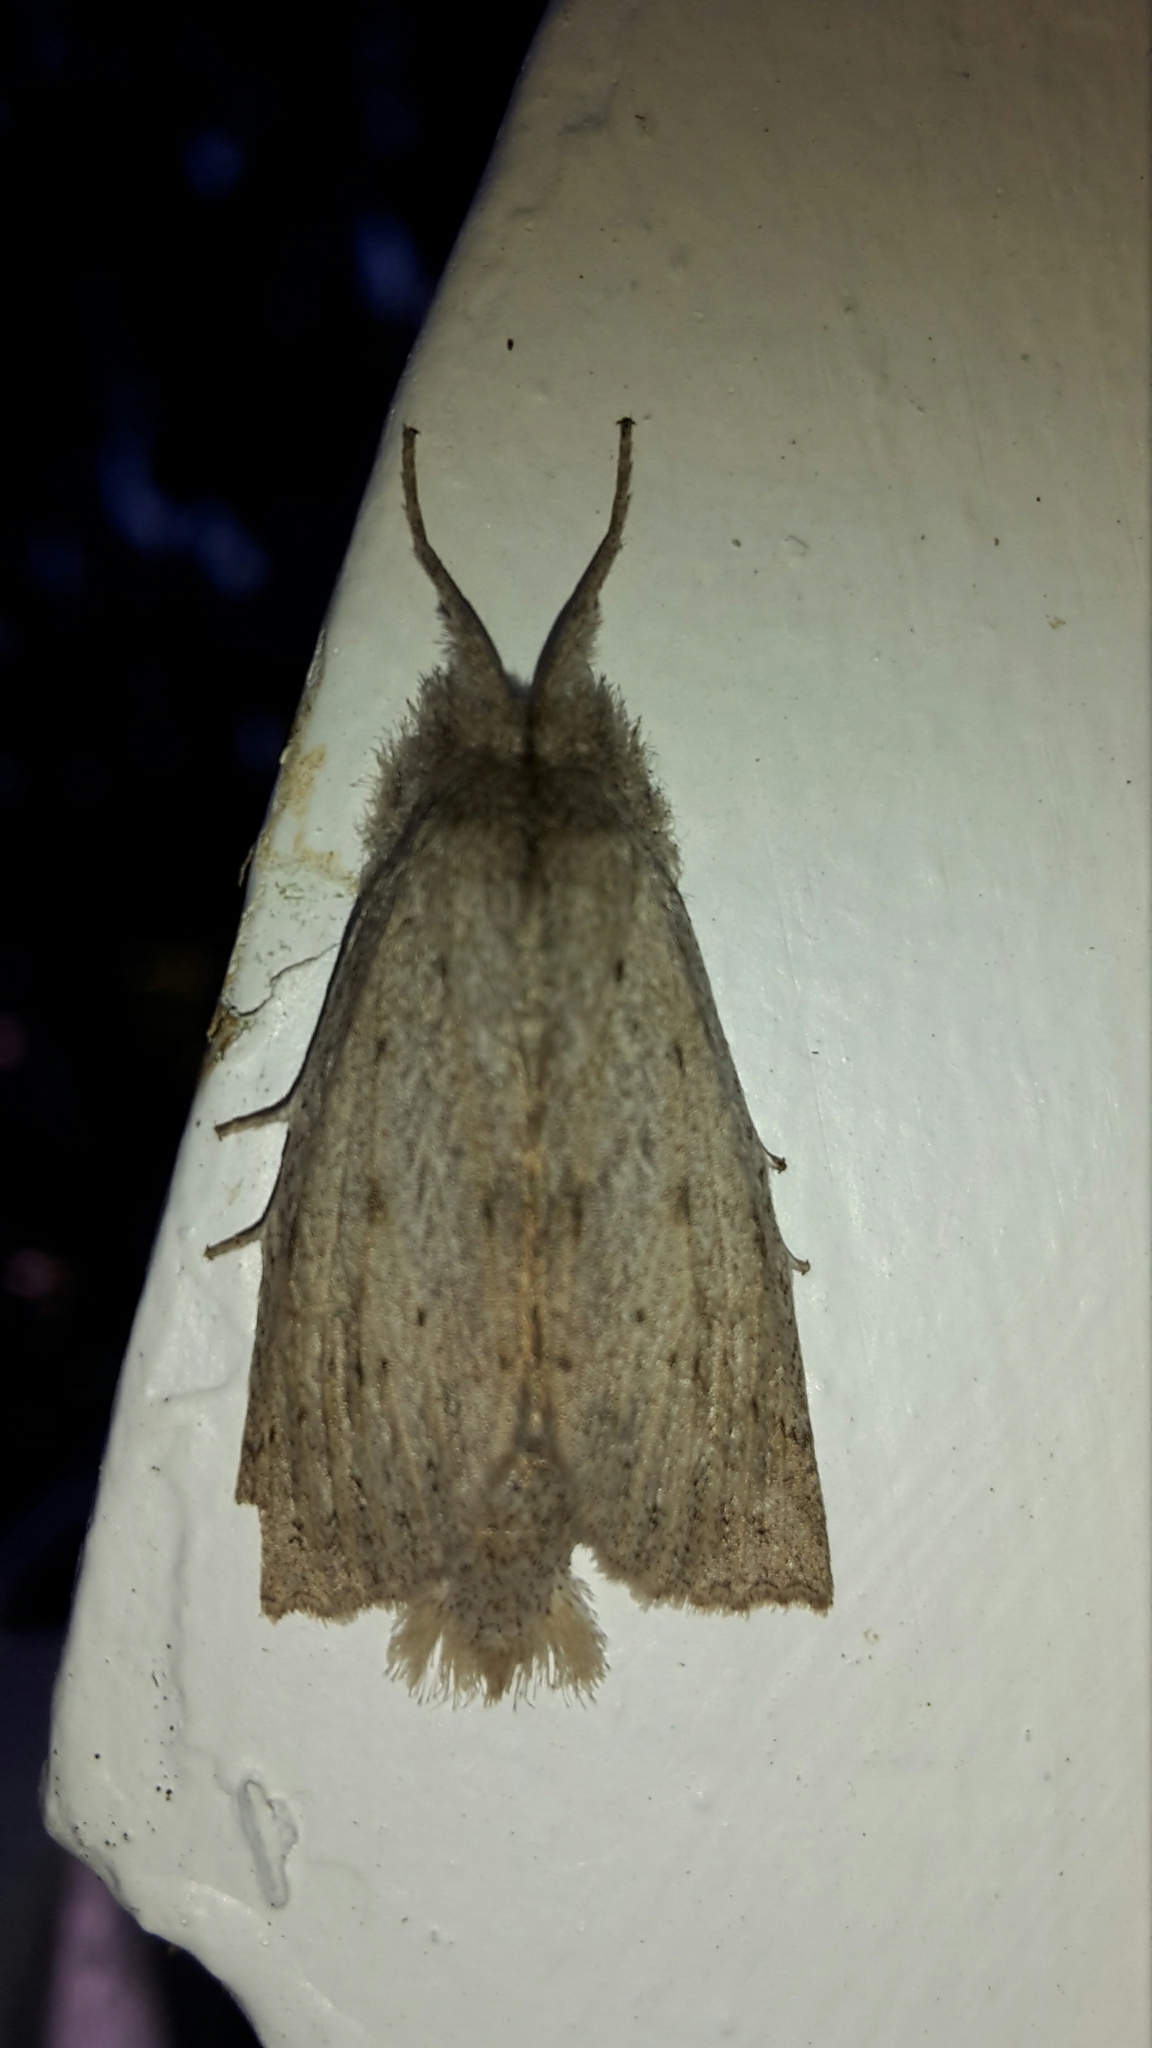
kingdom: Animalia
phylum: Arthropoda
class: Insecta
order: Lepidoptera
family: Geometridae
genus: Declana
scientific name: Declana leptomera
